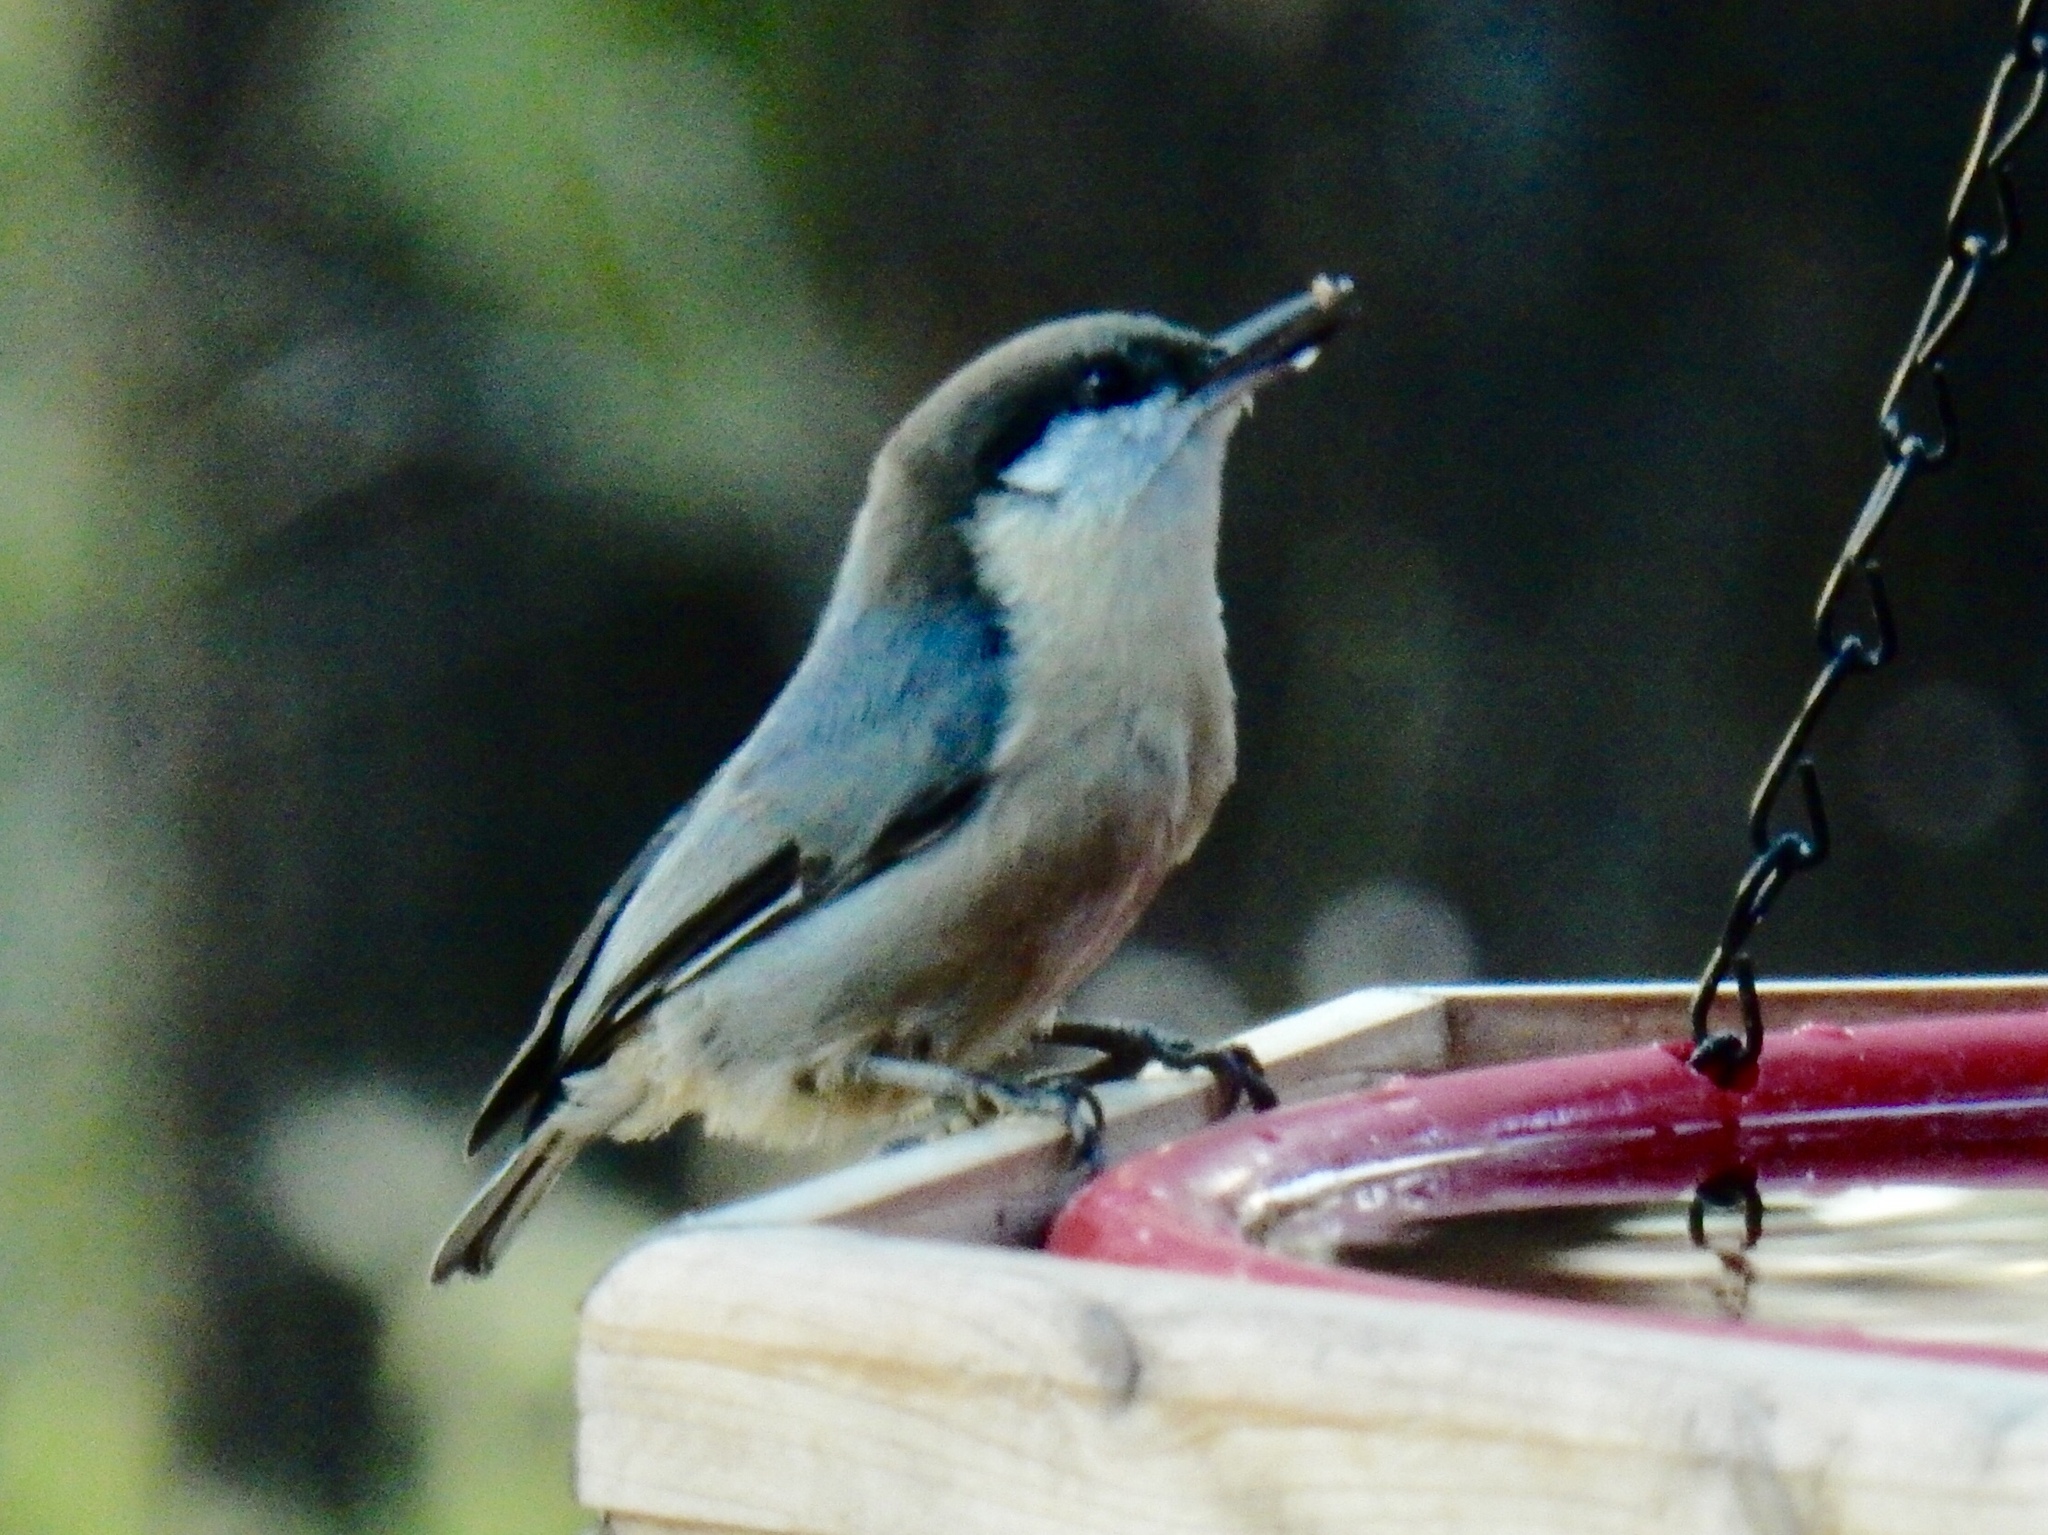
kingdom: Animalia
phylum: Chordata
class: Aves
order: Passeriformes
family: Sittidae
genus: Sitta
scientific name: Sitta pygmaea
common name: Pygmy nuthatch
